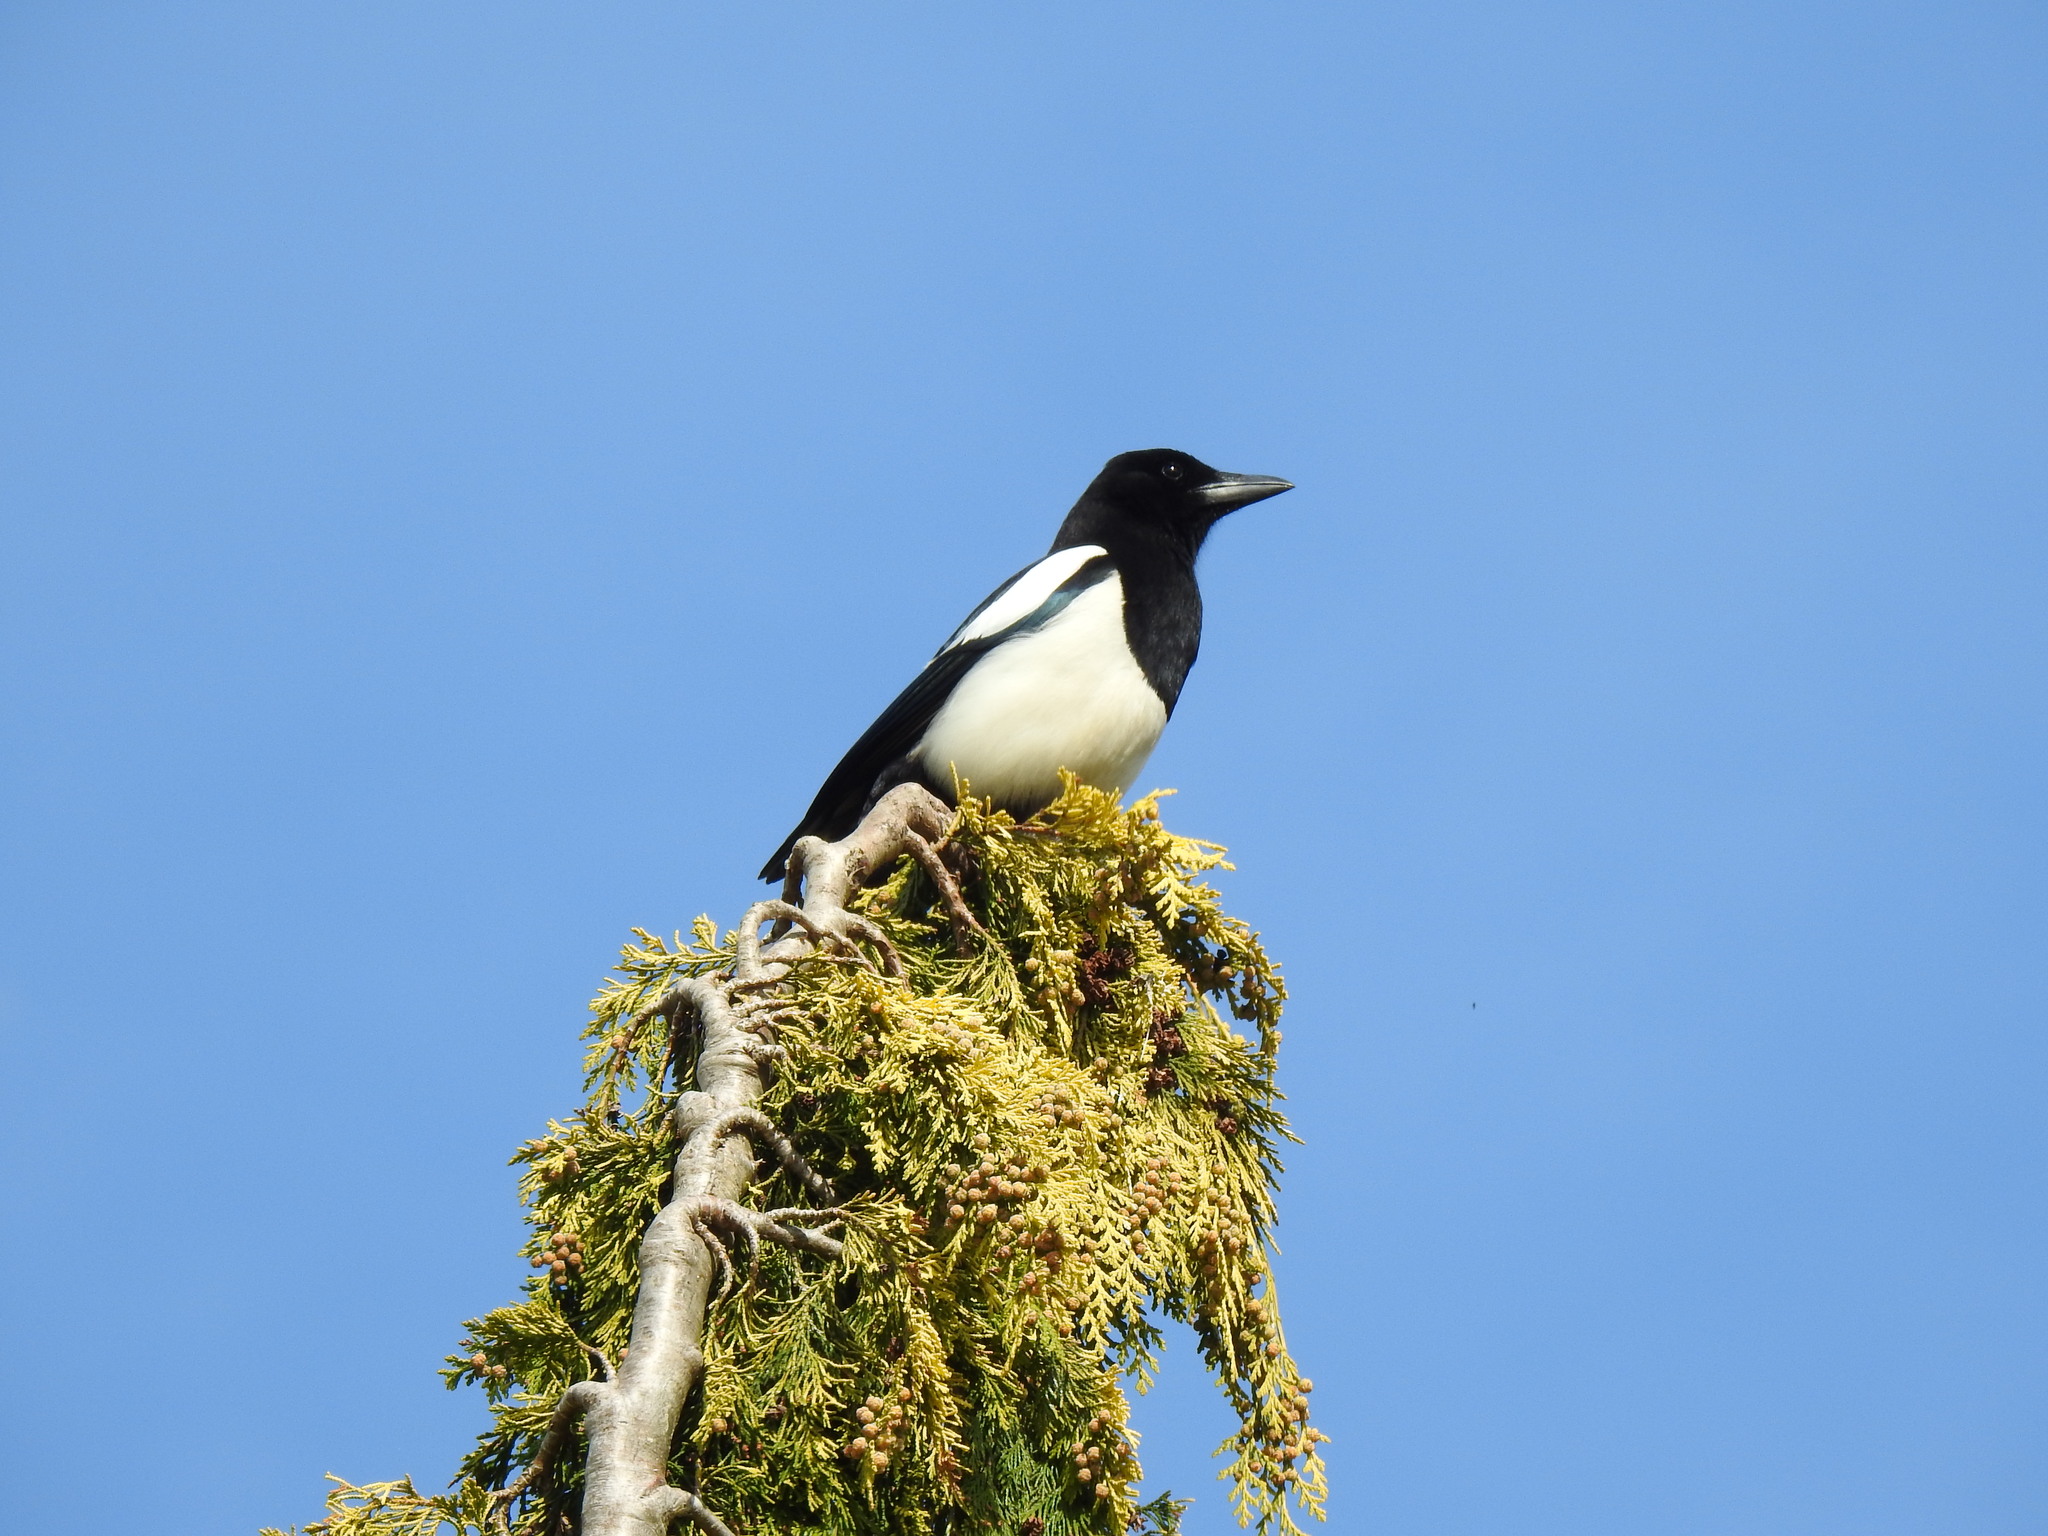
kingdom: Animalia
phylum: Chordata
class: Aves
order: Passeriformes
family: Corvidae
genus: Pica
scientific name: Pica pica
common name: Eurasian magpie
